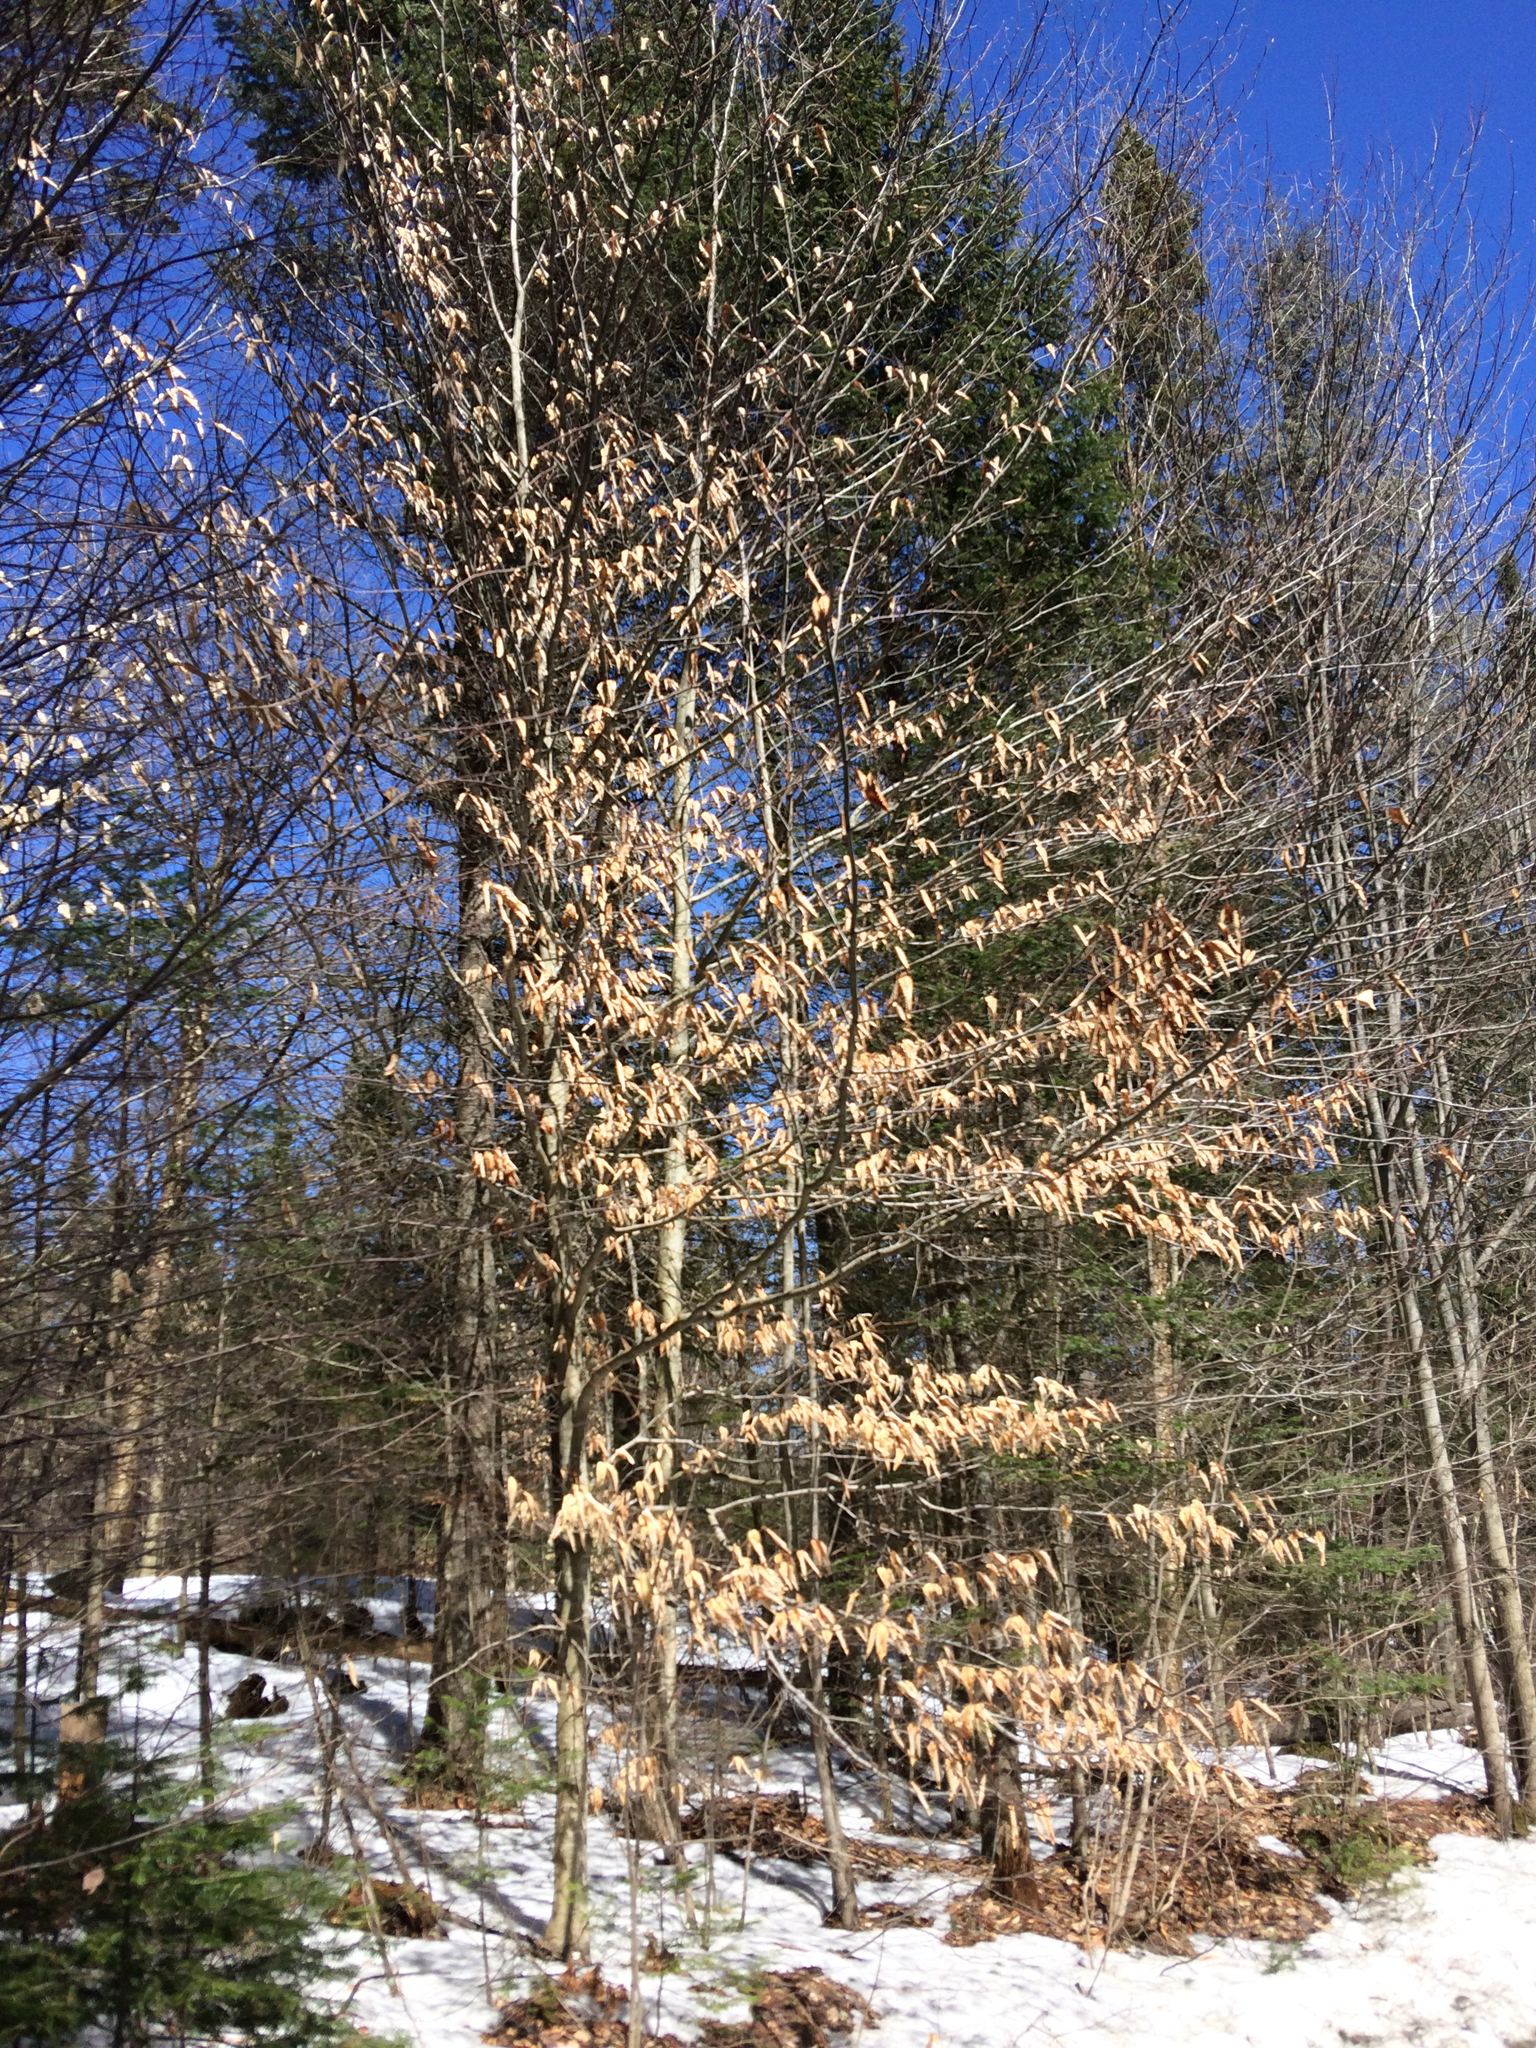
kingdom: Plantae
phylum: Tracheophyta
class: Magnoliopsida
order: Fagales
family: Fagaceae
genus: Fagus
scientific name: Fagus grandifolia
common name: American beech
